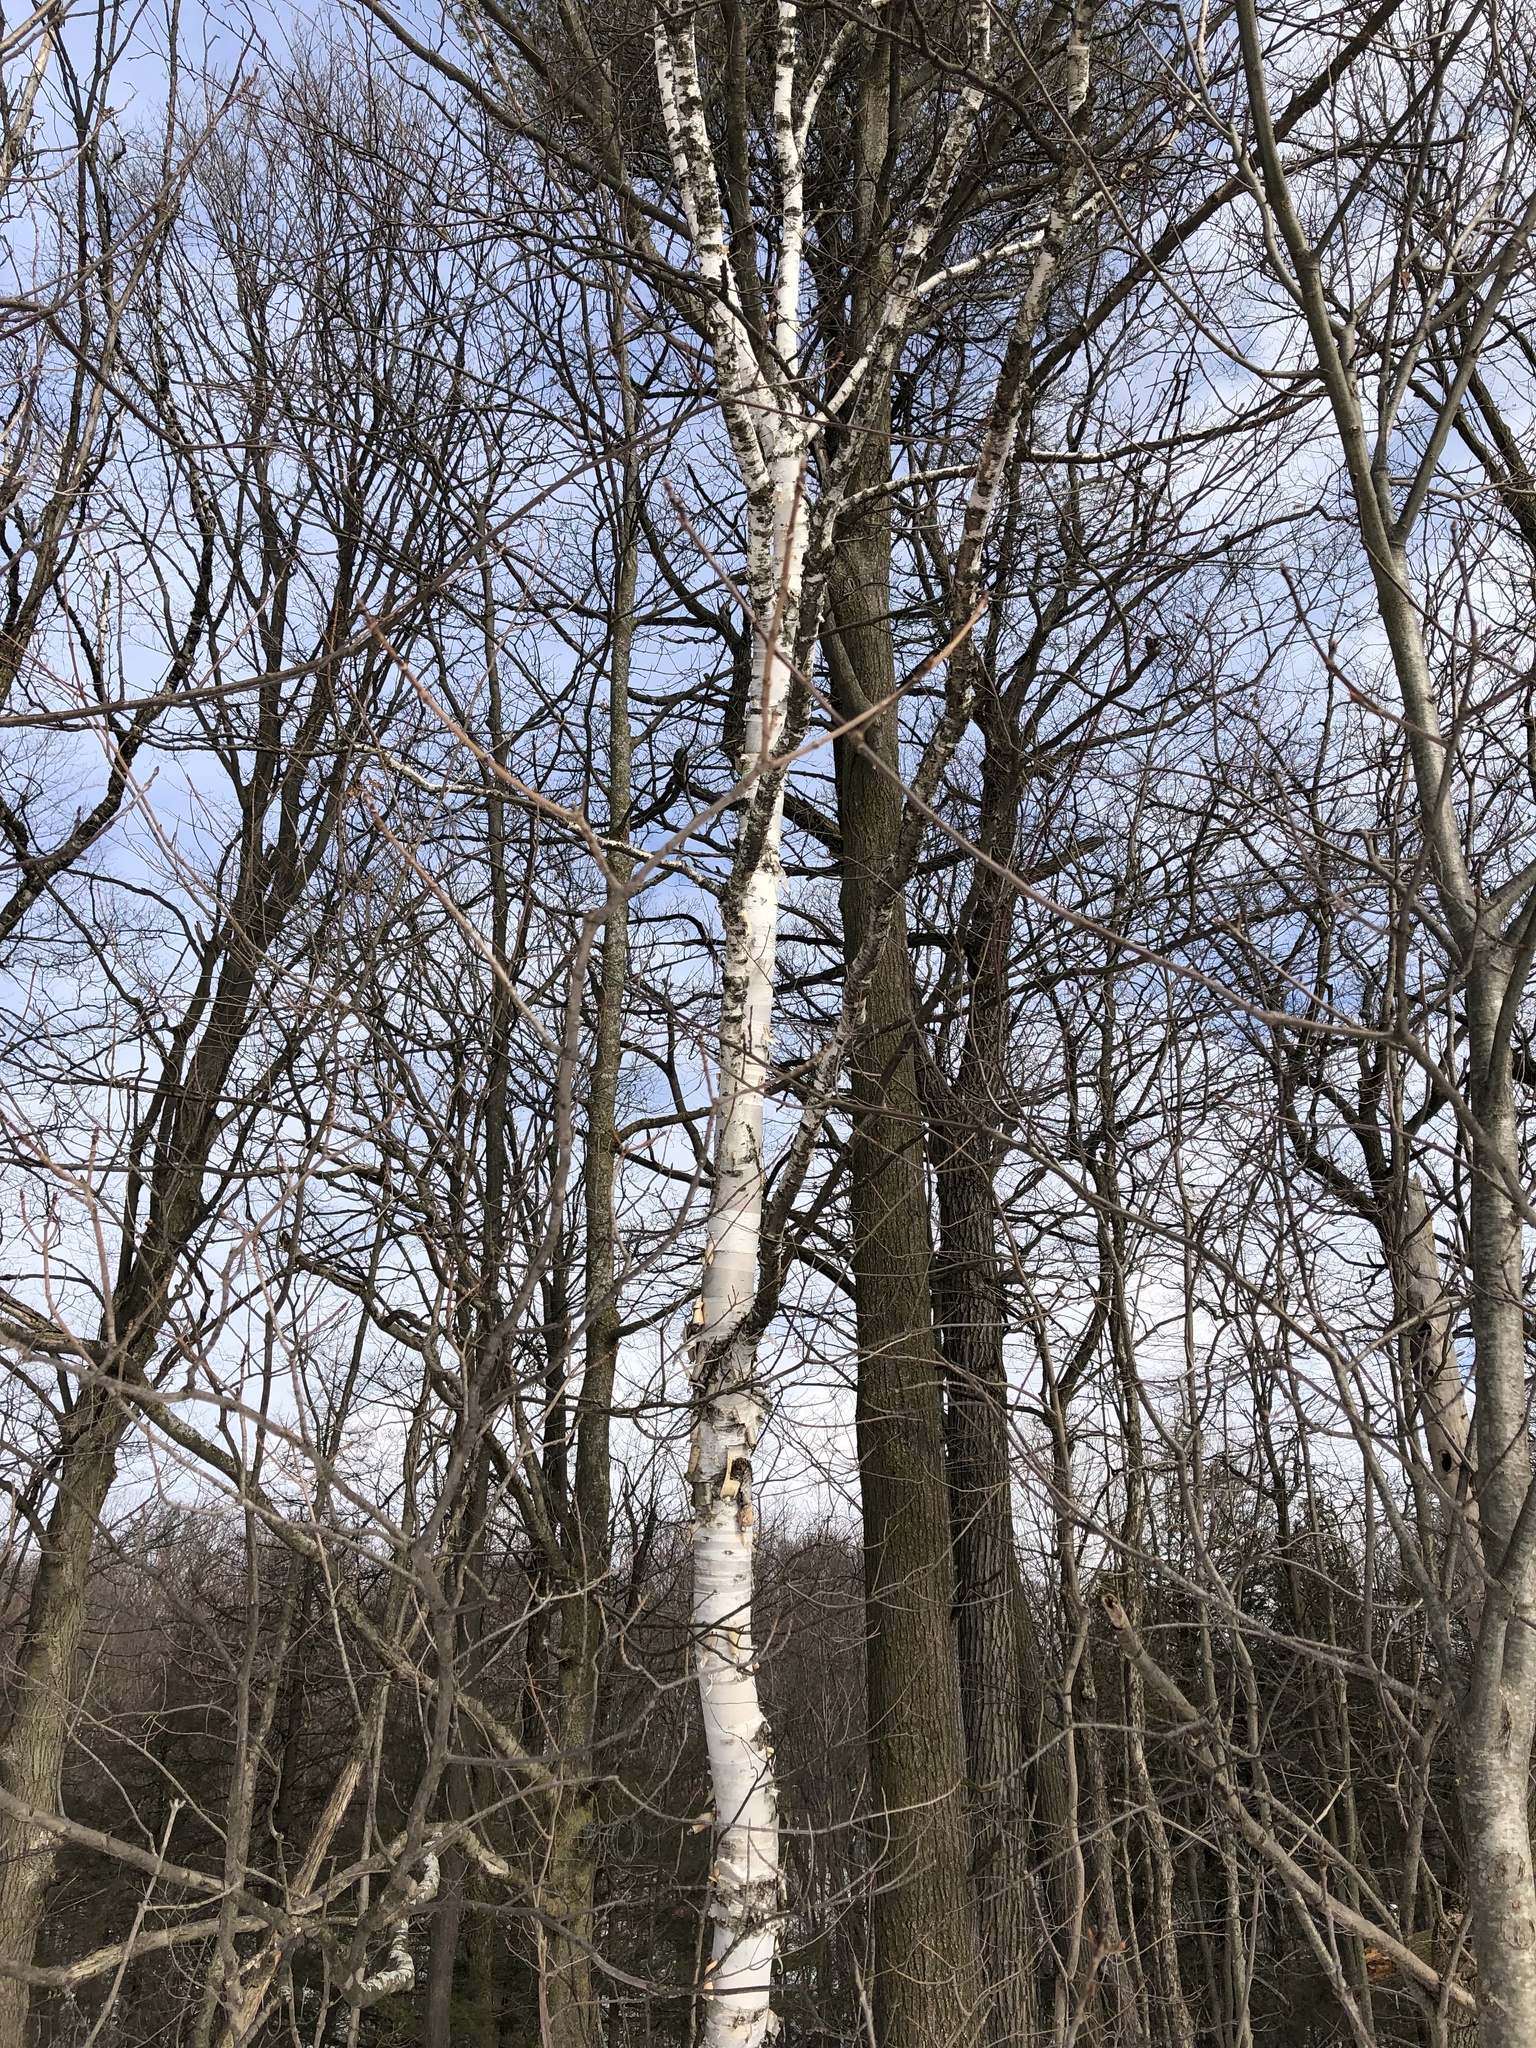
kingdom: Plantae
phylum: Tracheophyta
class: Magnoliopsida
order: Fagales
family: Betulaceae
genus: Betula
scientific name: Betula papyrifera
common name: Paper birch
